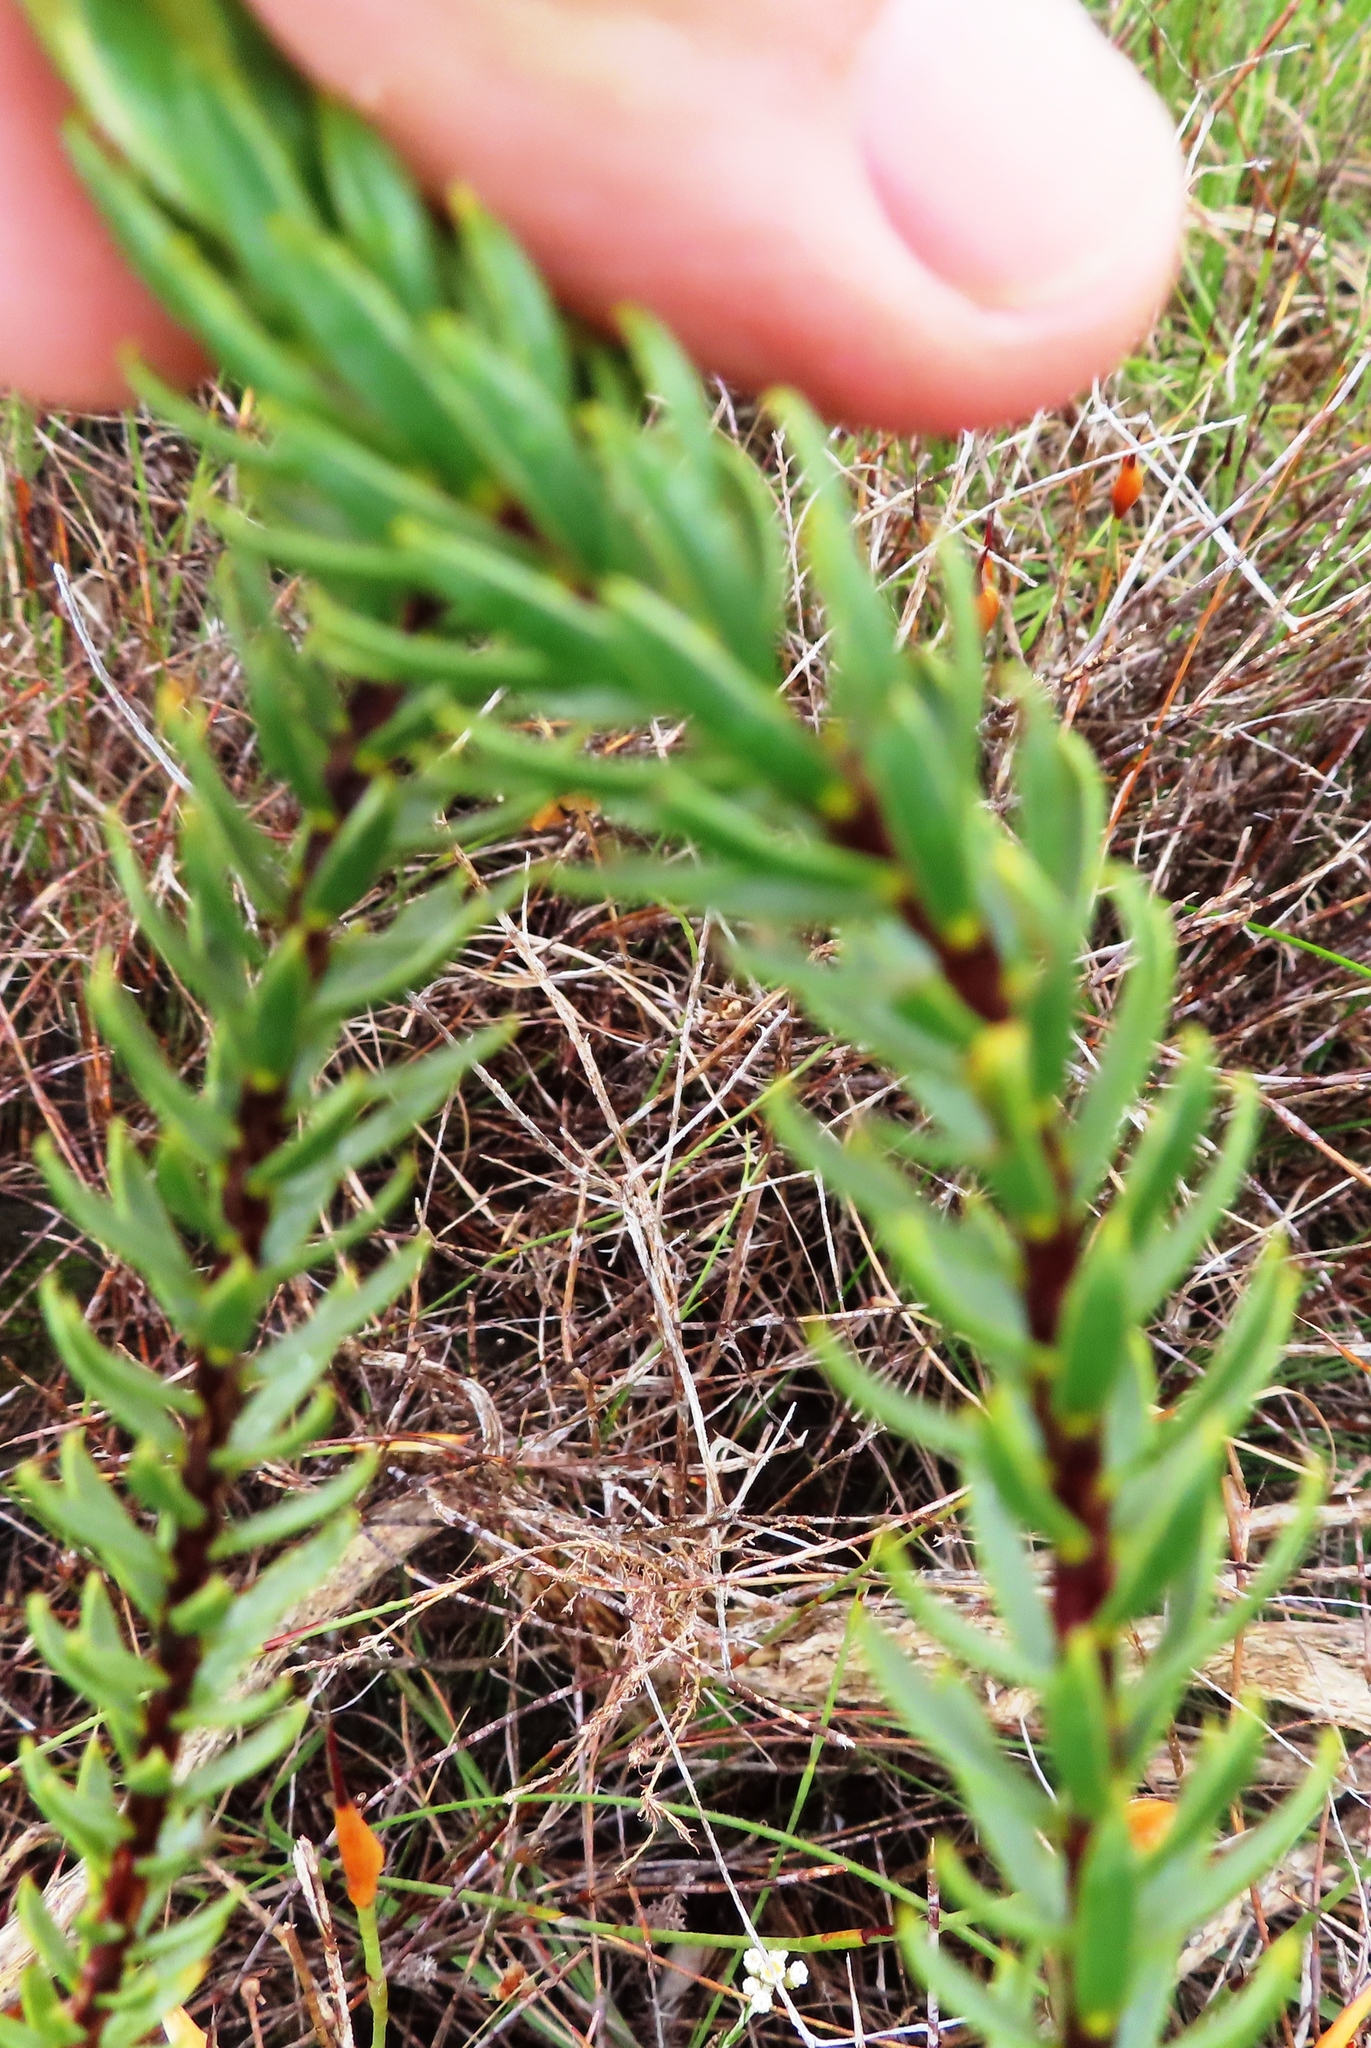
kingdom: Plantae
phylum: Tracheophyta
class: Magnoliopsida
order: Malvales
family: Thymelaeaceae
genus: Lachnaea
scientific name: Lachnaea aurea
